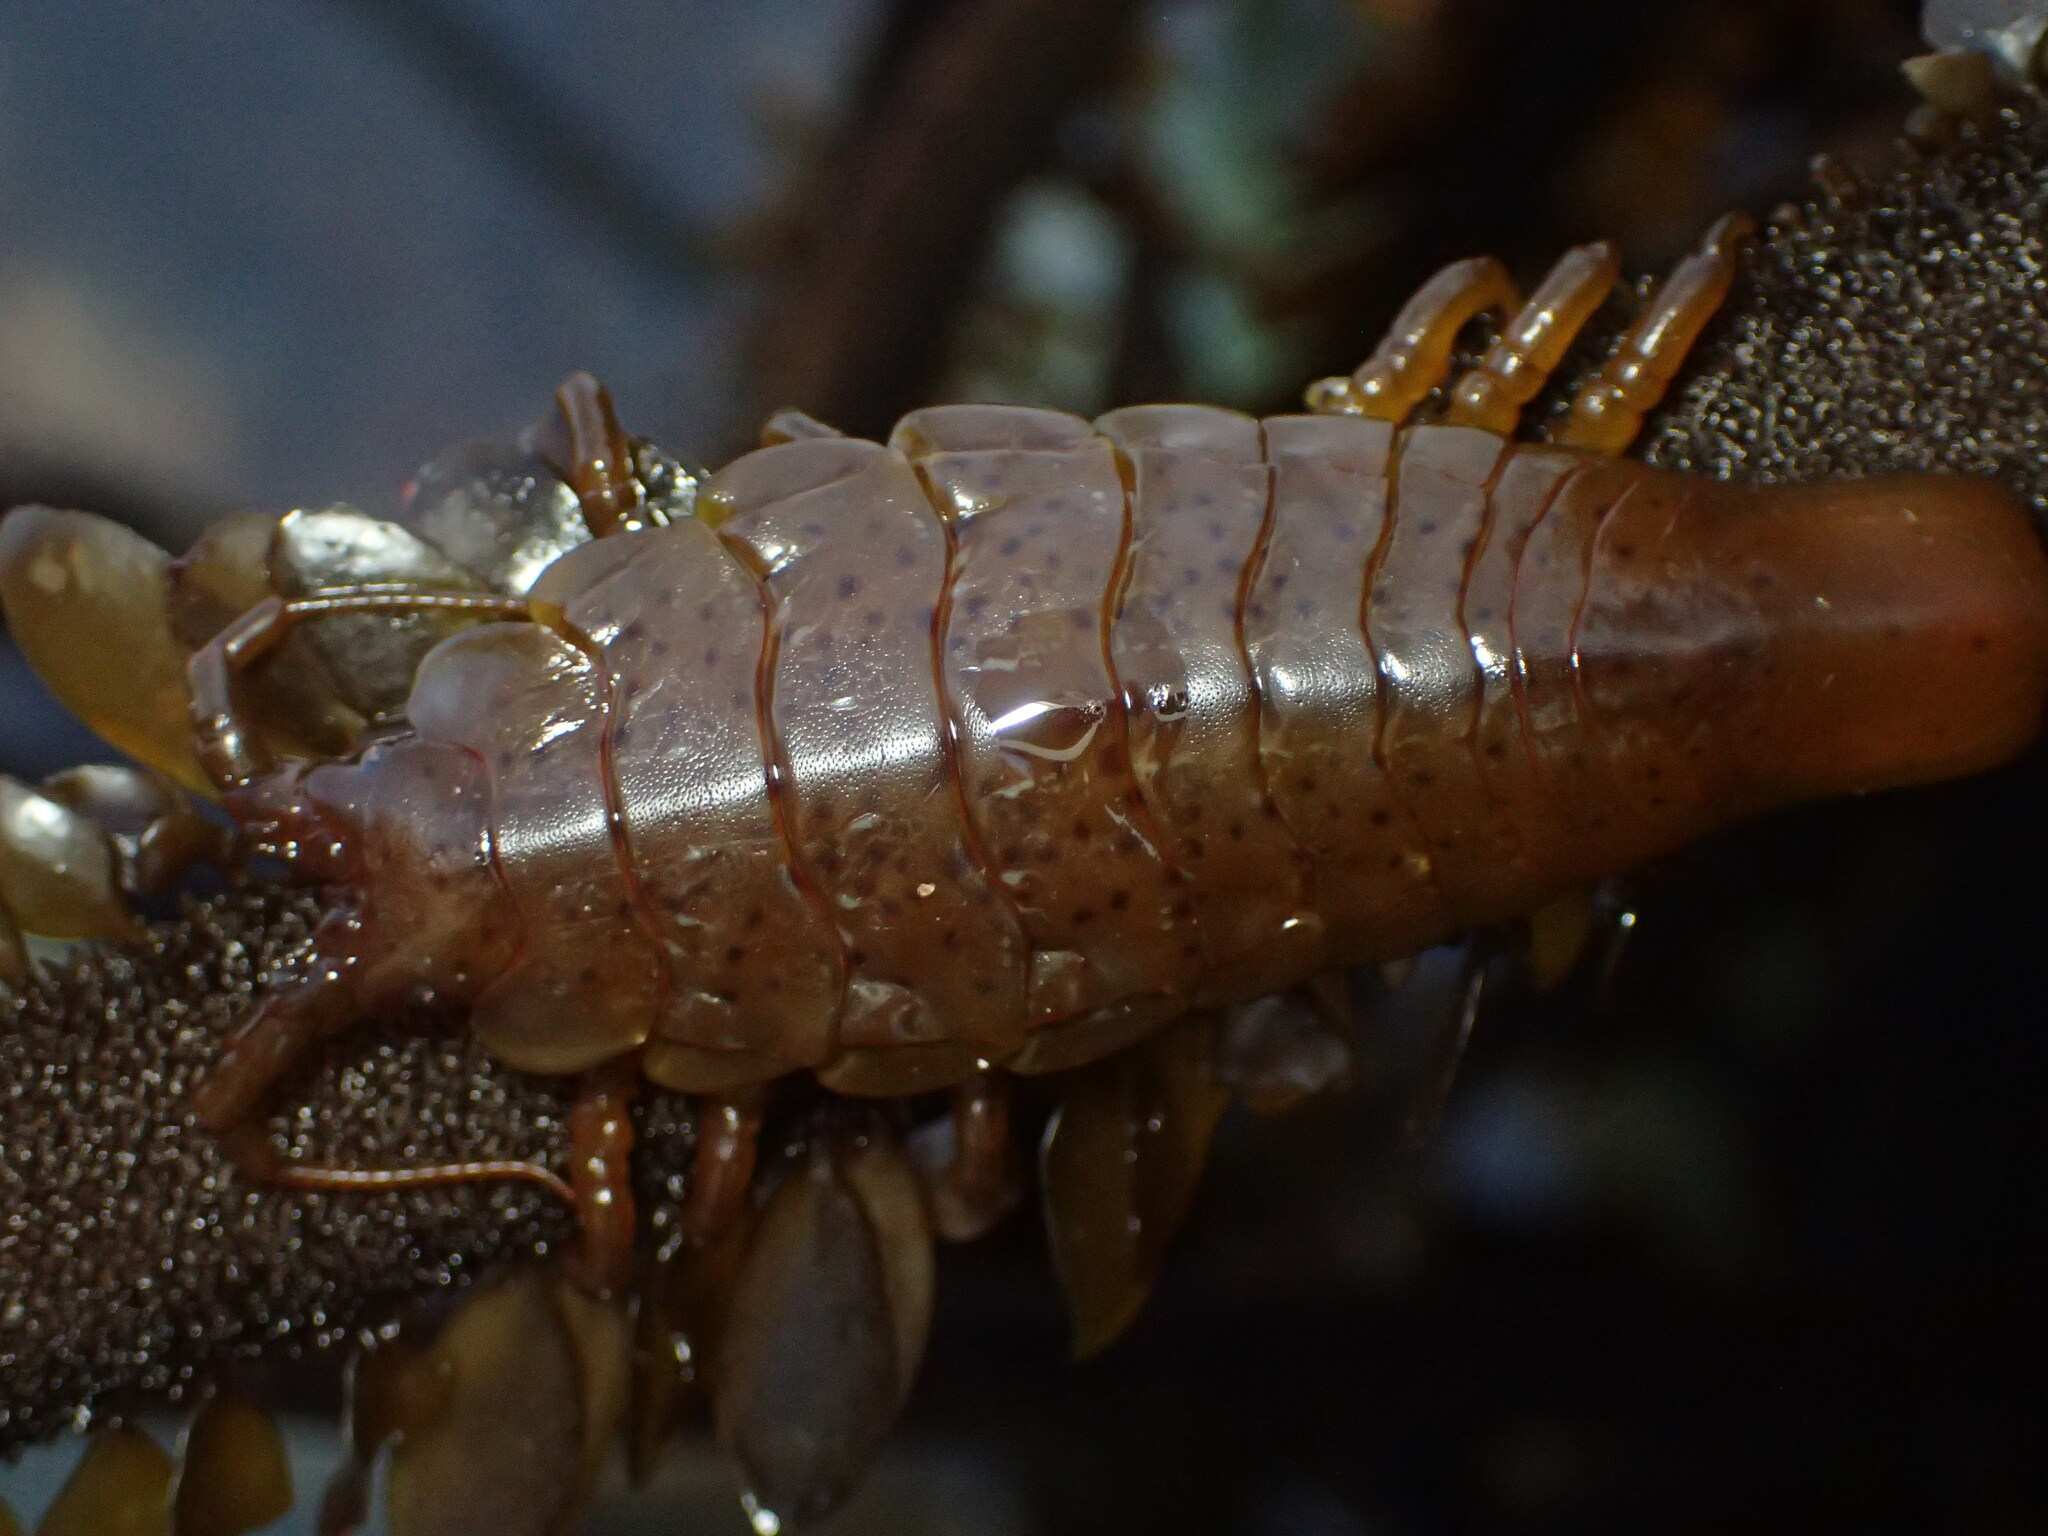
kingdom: Animalia
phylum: Arthropoda
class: Malacostraca
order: Isopoda
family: Idoteidae
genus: Pentidotea
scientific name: Pentidotea stenops
